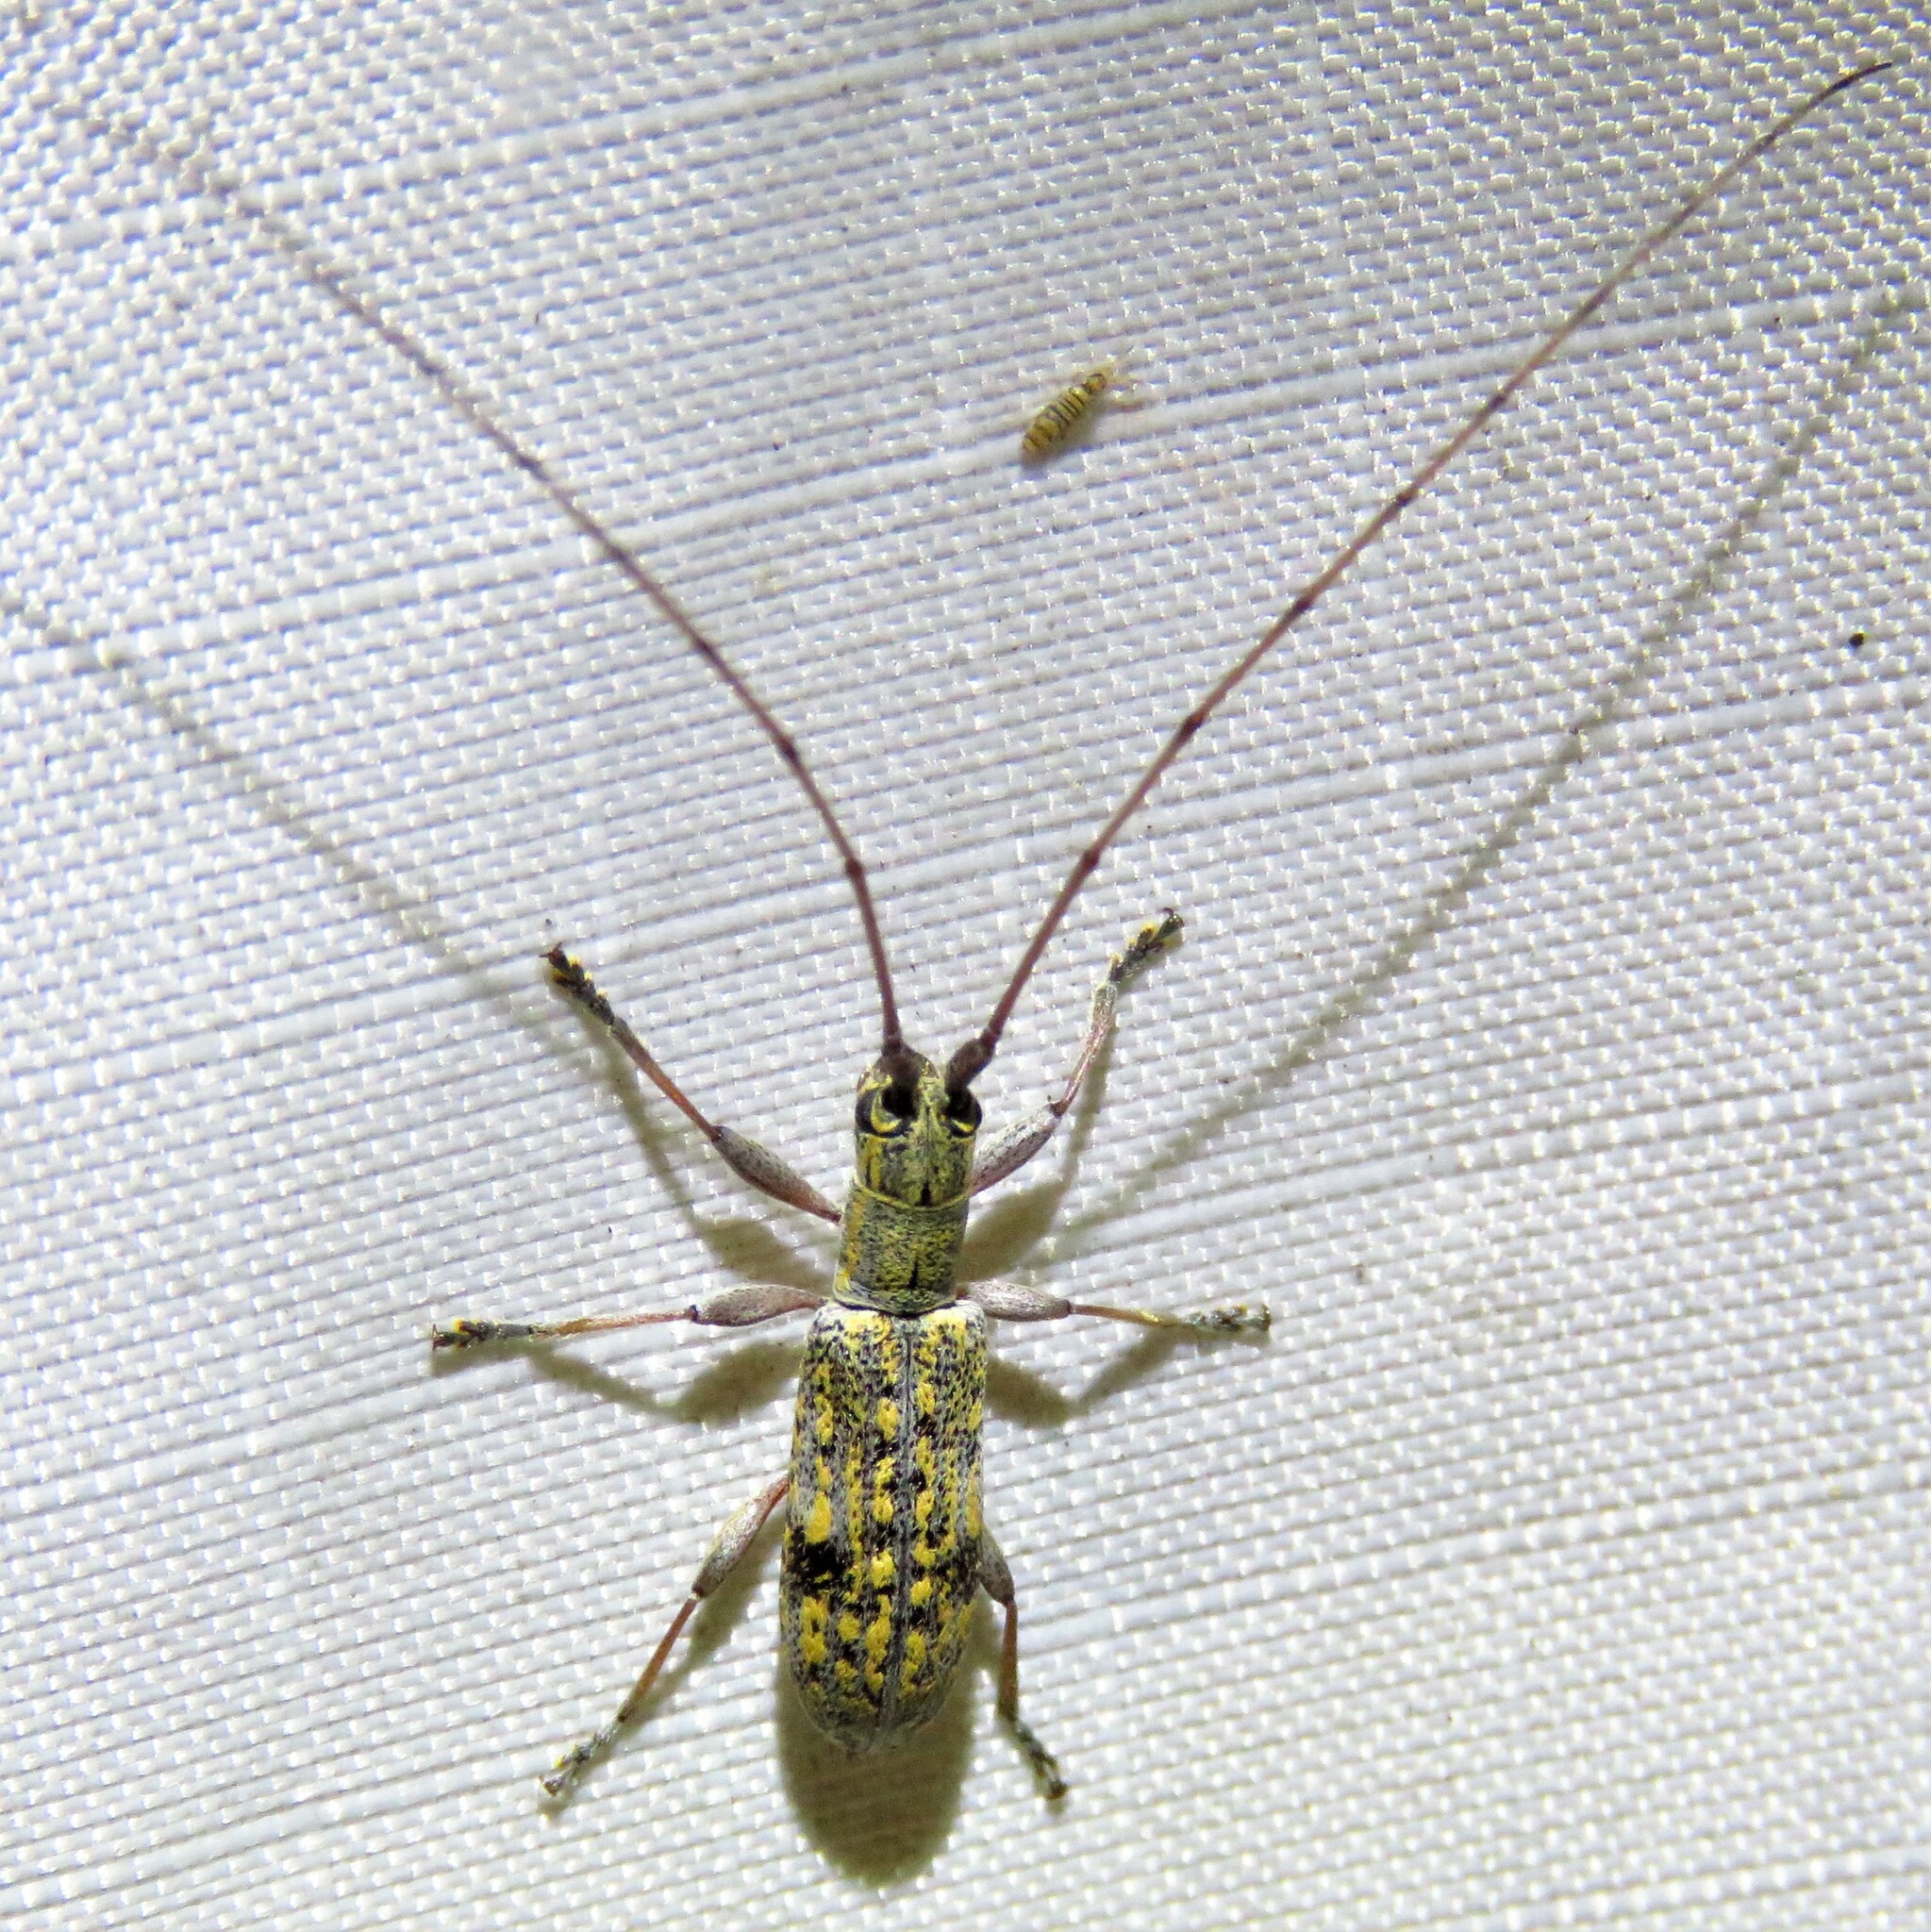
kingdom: Animalia
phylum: Arthropoda
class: Insecta
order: Coleoptera
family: Cerambycidae
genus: Dorcaschema
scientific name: Dorcaschema alternatum
